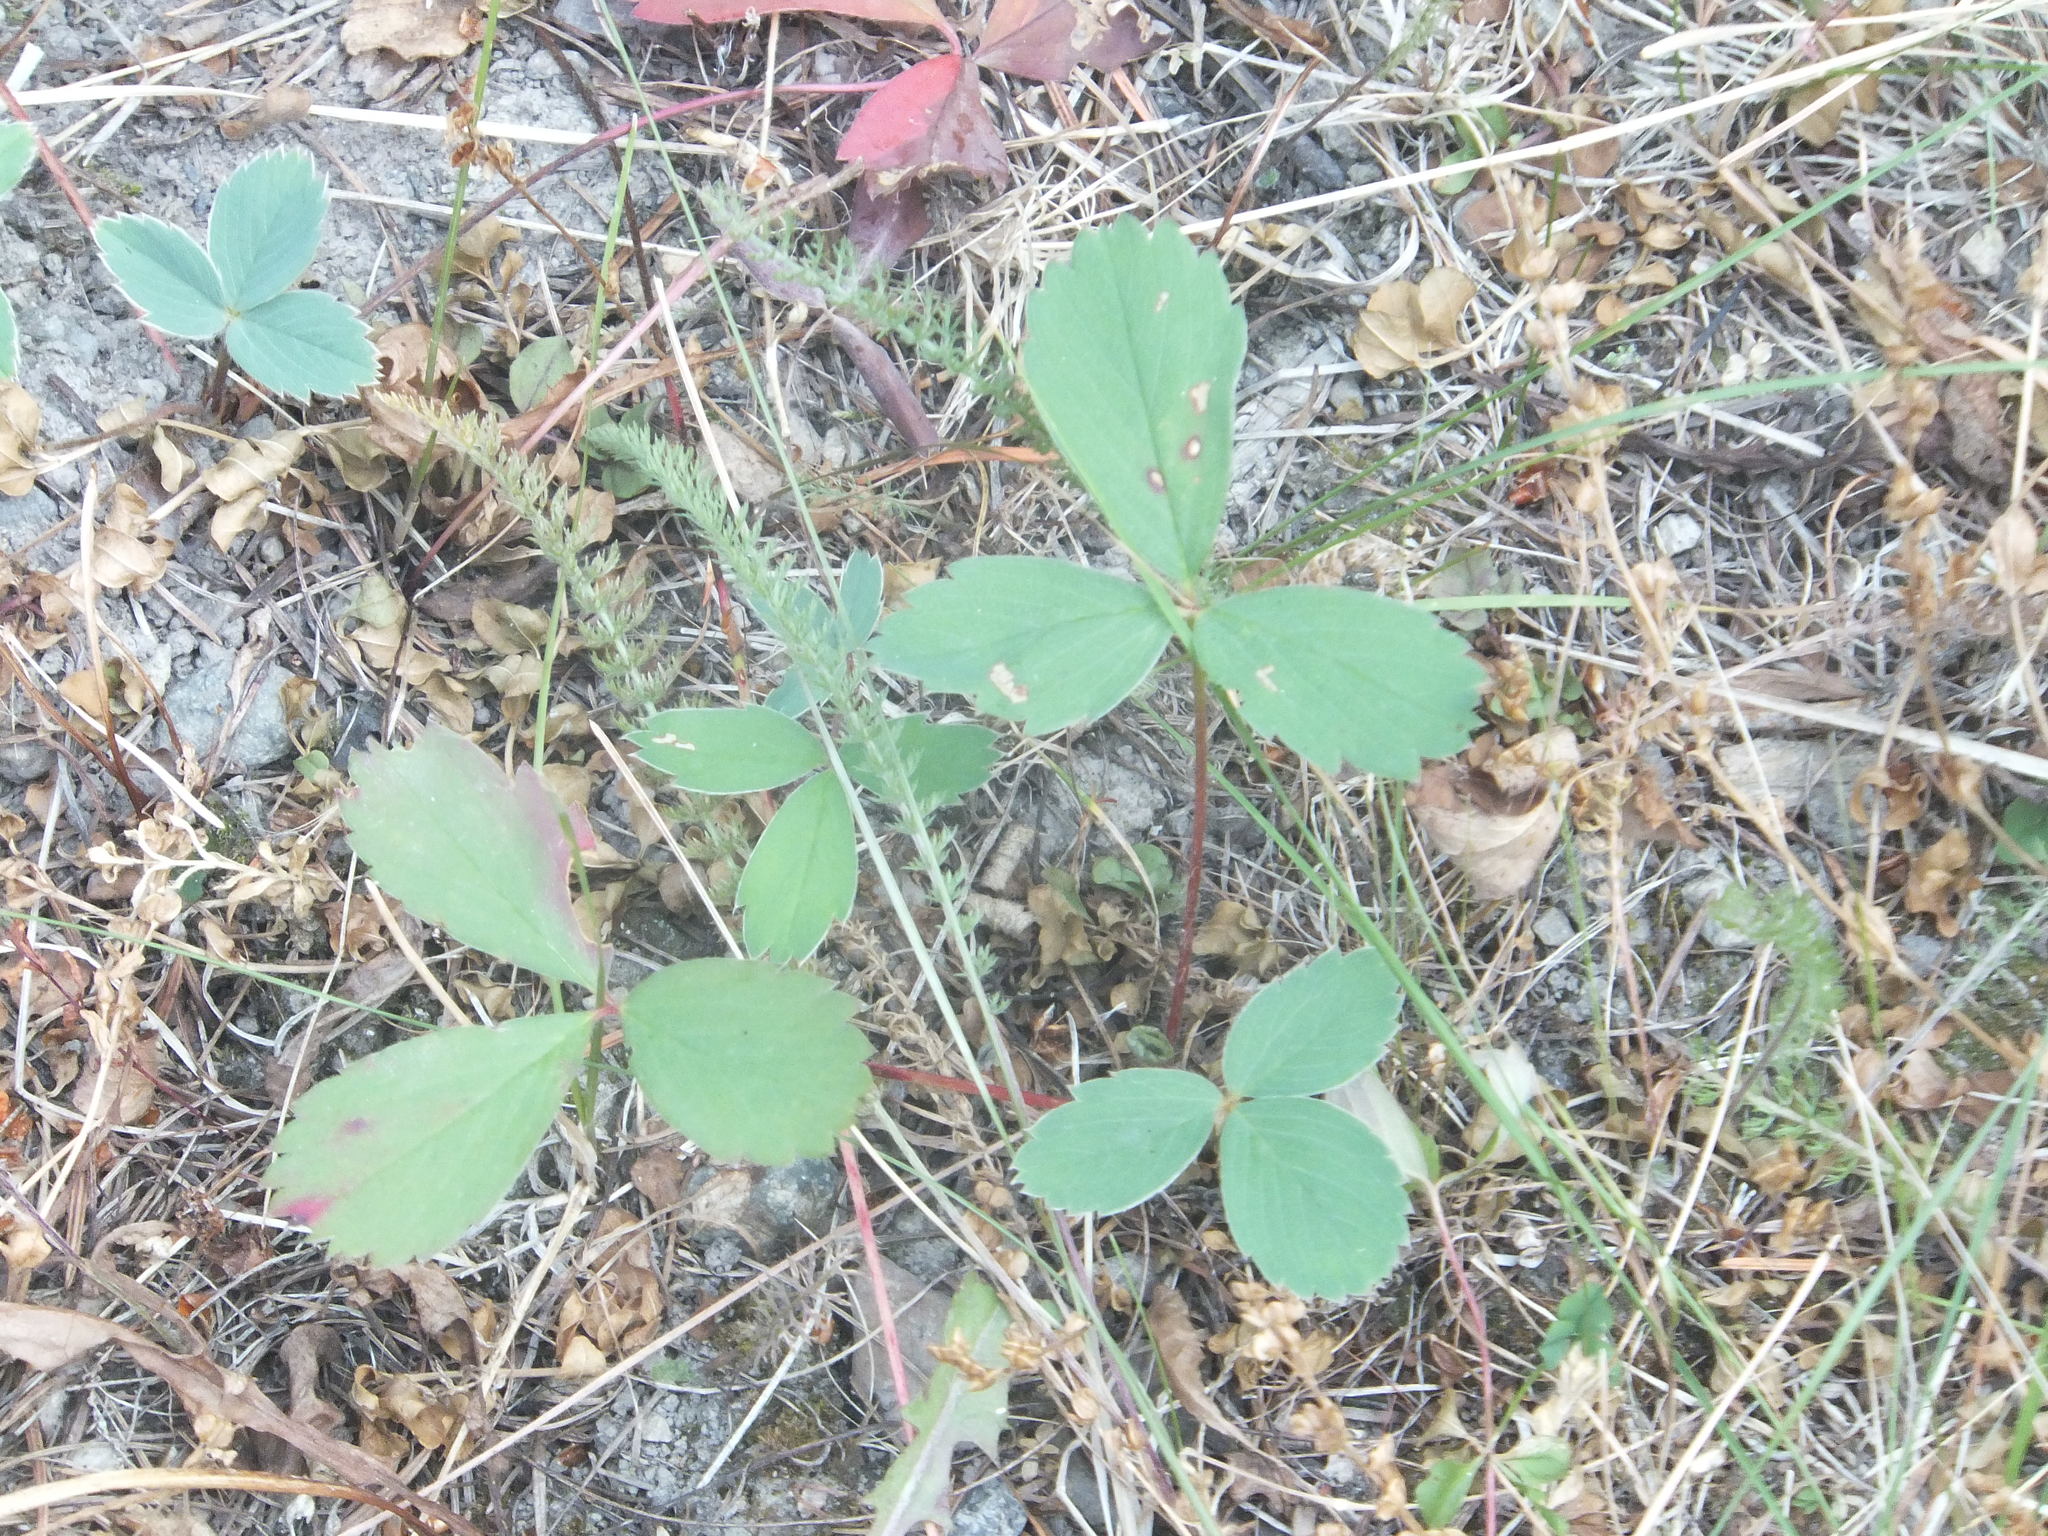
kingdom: Plantae
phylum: Tracheophyta
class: Magnoliopsida
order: Rosales
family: Rosaceae
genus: Fragaria
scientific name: Fragaria virginiana
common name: Thickleaved wild strawberry
